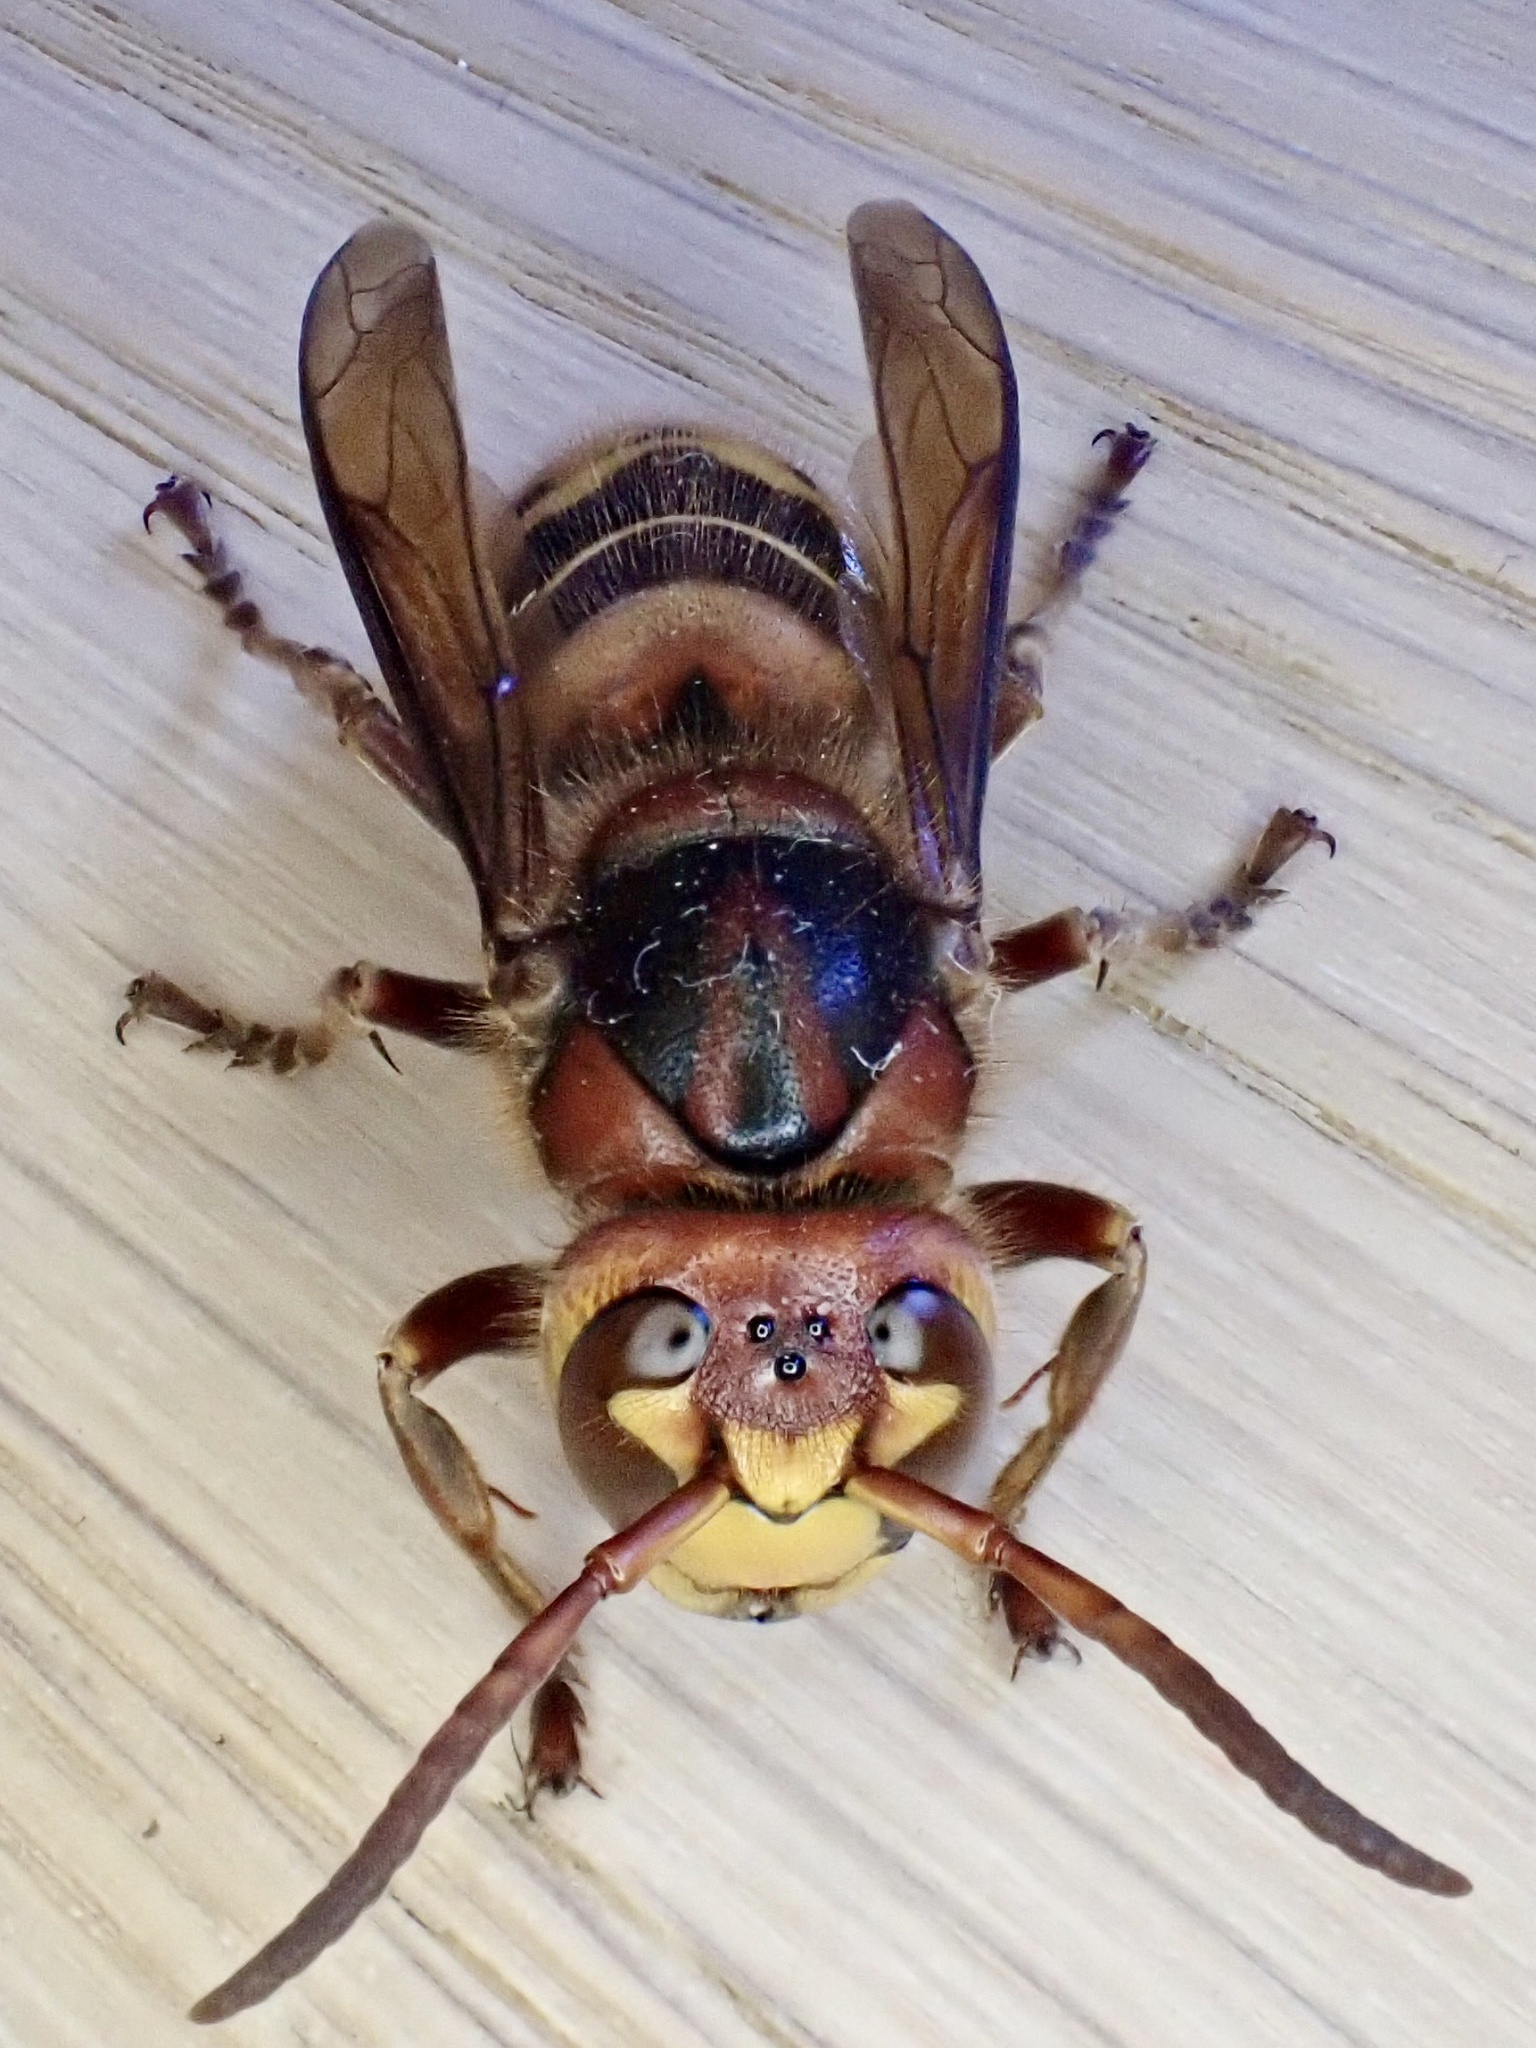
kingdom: Animalia
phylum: Arthropoda
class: Insecta
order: Hymenoptera
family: Vespidae
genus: Vespa
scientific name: Vespa crabro
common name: Hornet
